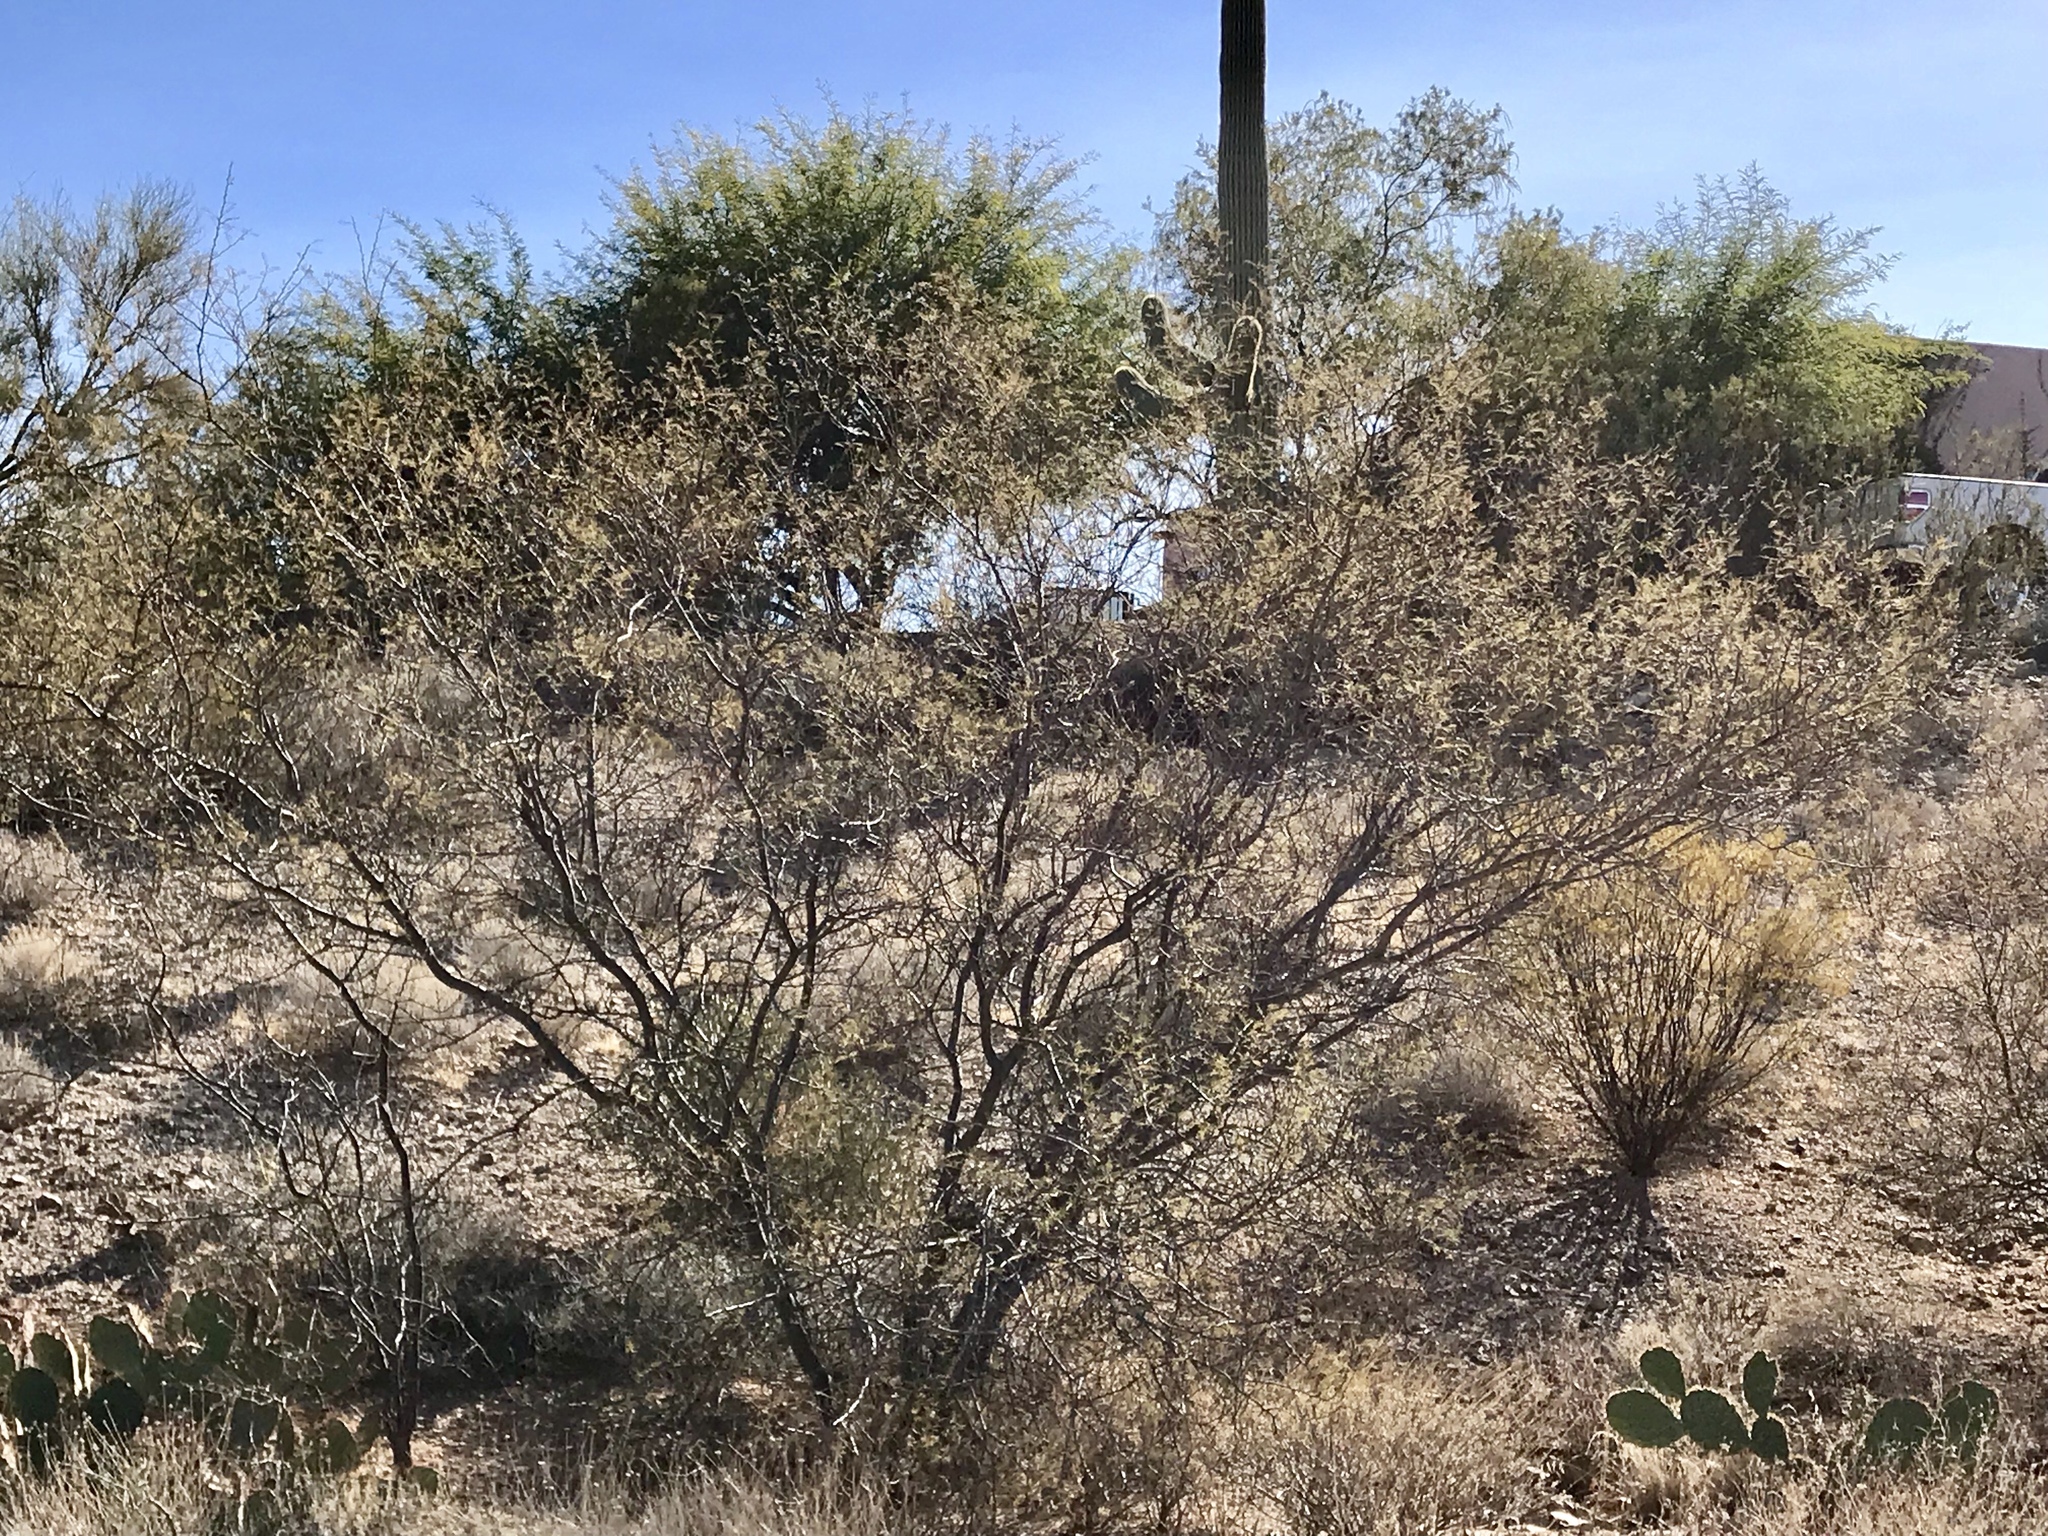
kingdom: Plantae
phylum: Tracheophyta
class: Magnoliopsida
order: Zygophyllales
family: Zygophyllaceae
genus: Larrea
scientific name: Larrea tridentata
